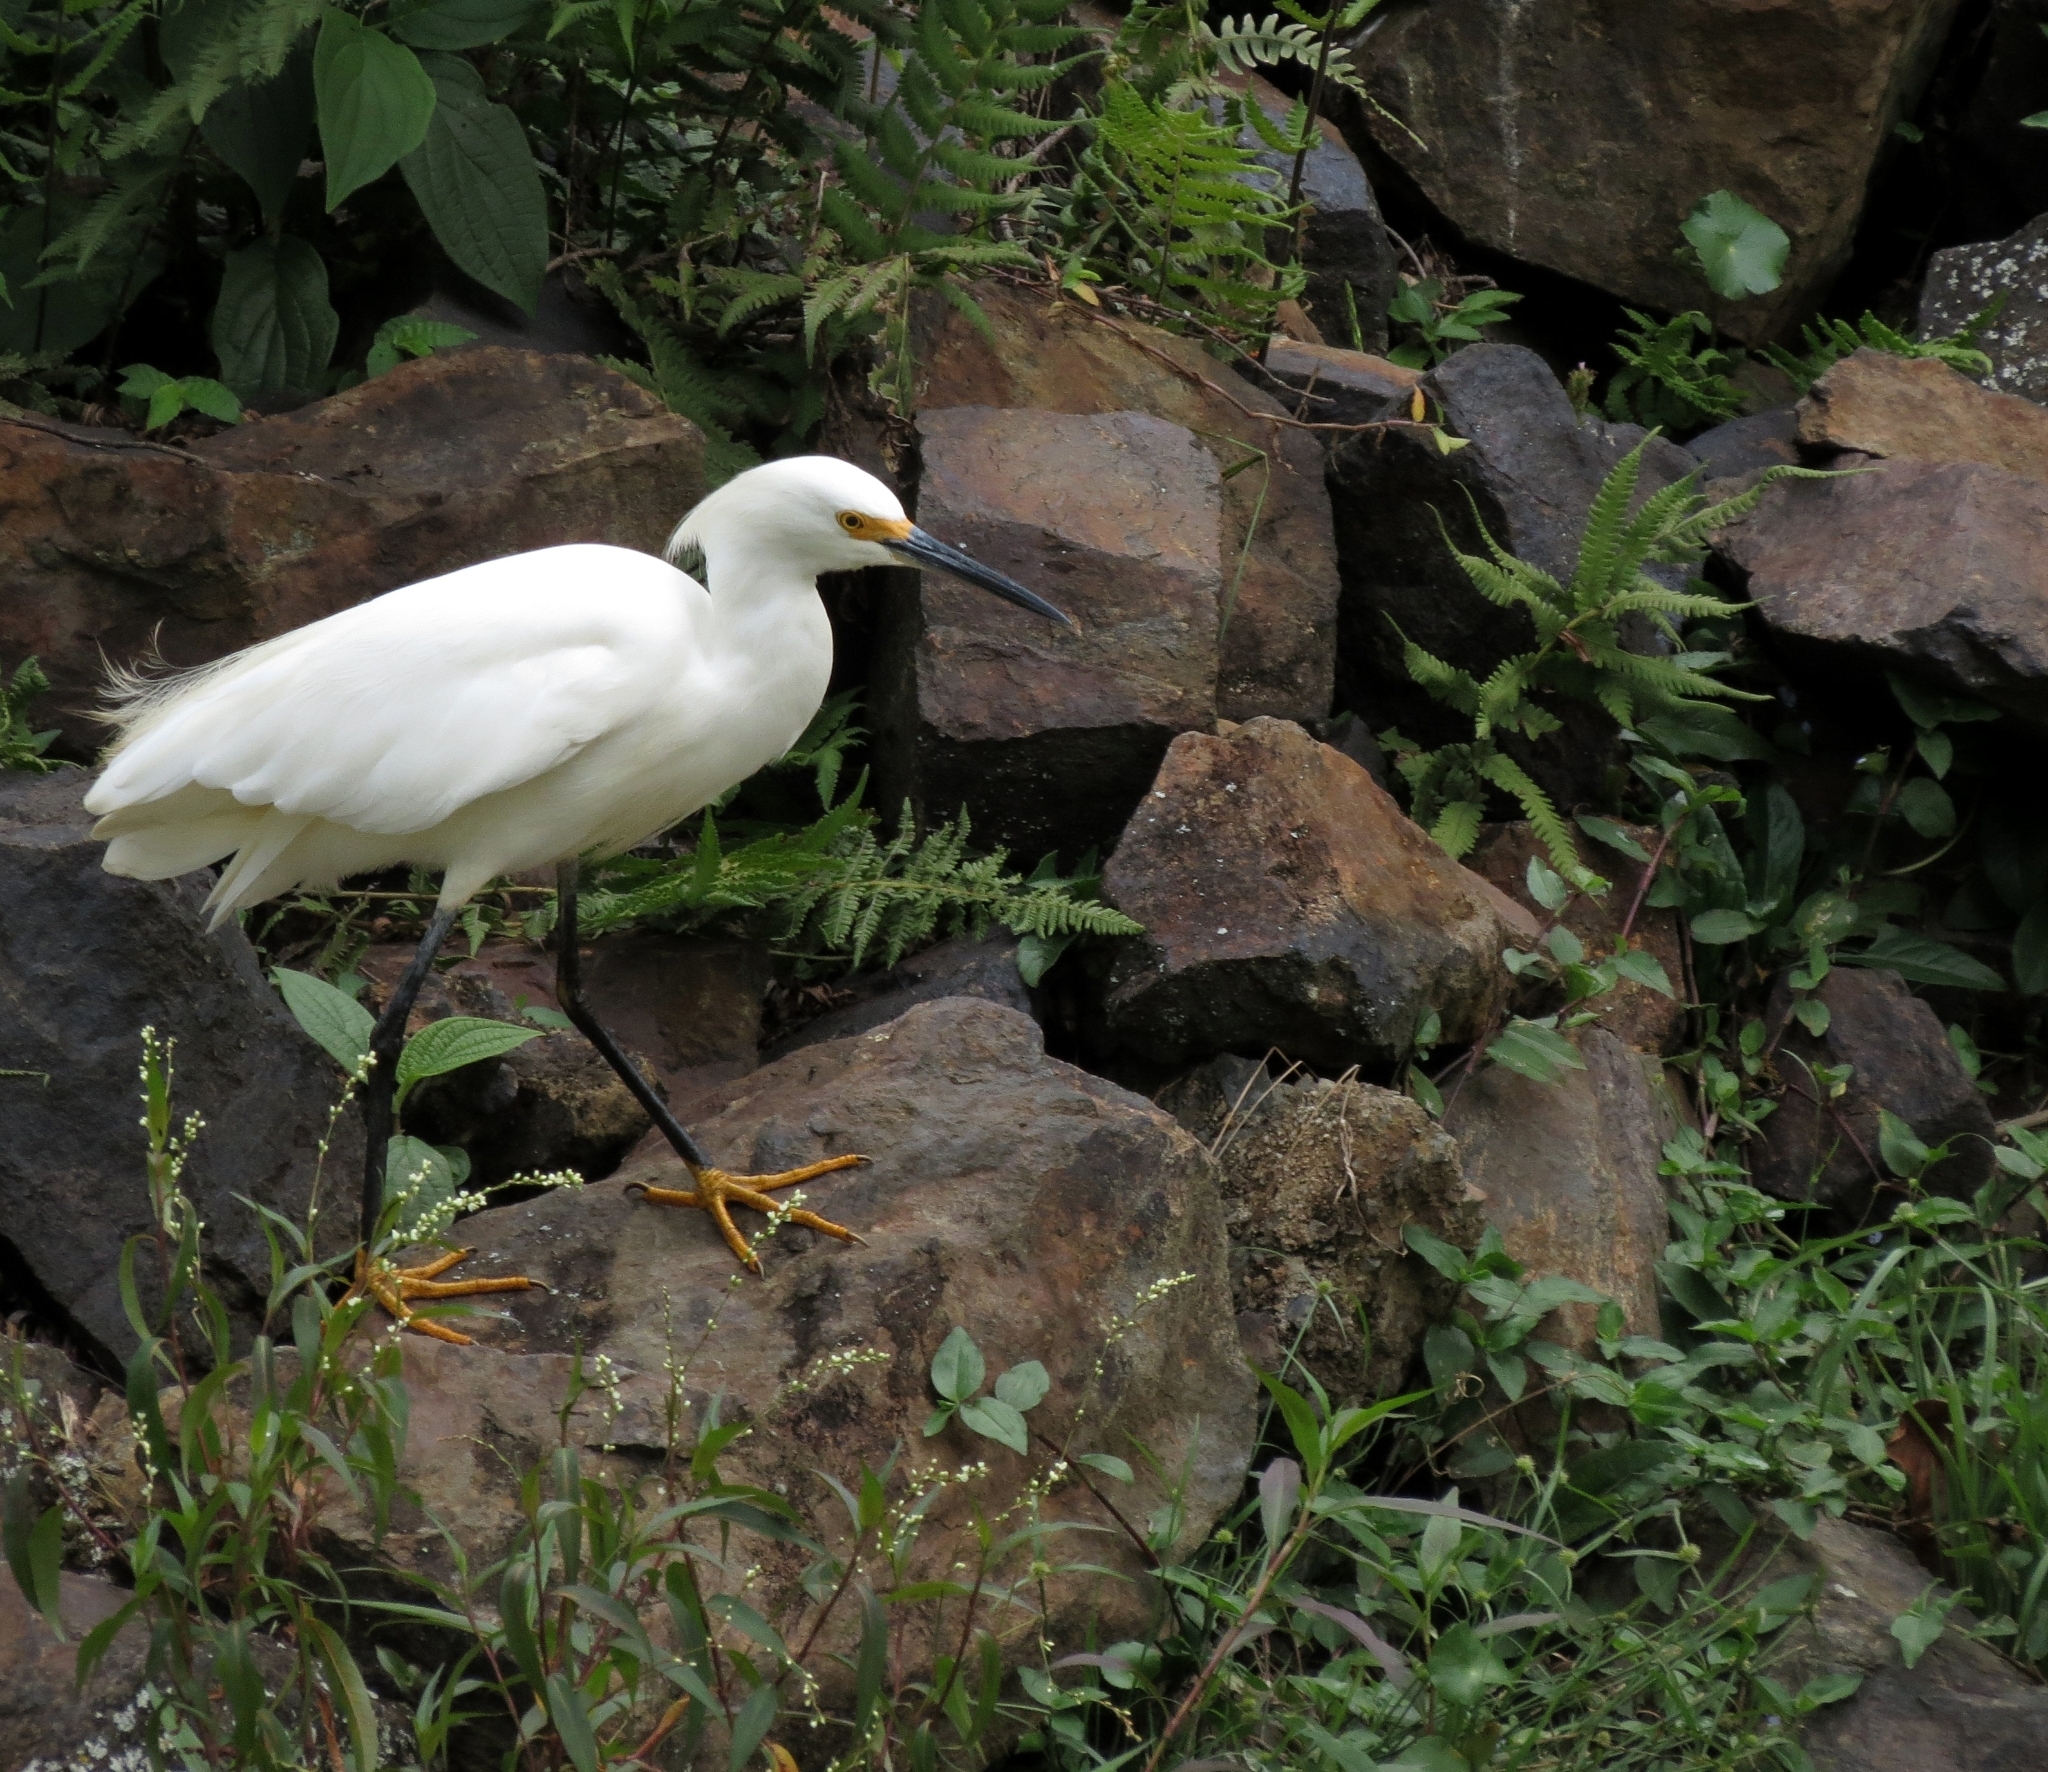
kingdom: Animalia
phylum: Chordata
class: Aves
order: Pelecaniformes
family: Ardeidae
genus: Egretta
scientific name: Egretta thula
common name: Snowy egret
